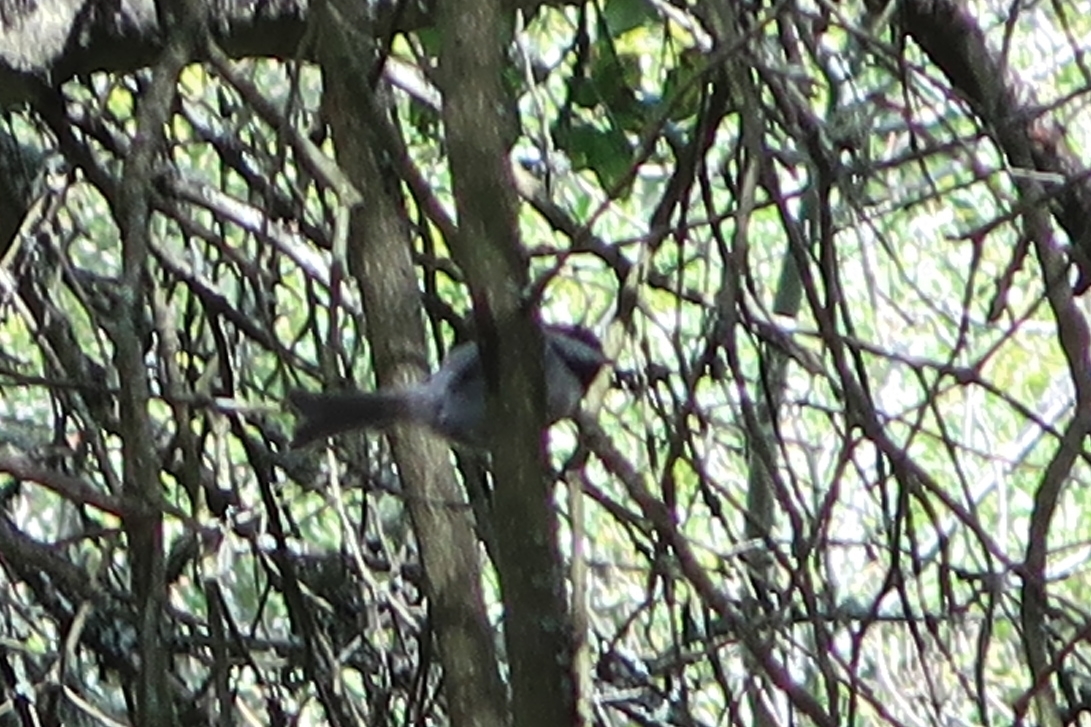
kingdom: Animalia
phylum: Chordata
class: Aves
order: Passeriformes
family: Paridae
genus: Poecile
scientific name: Poecile rufescens
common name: Chestnut-backed chickadee
